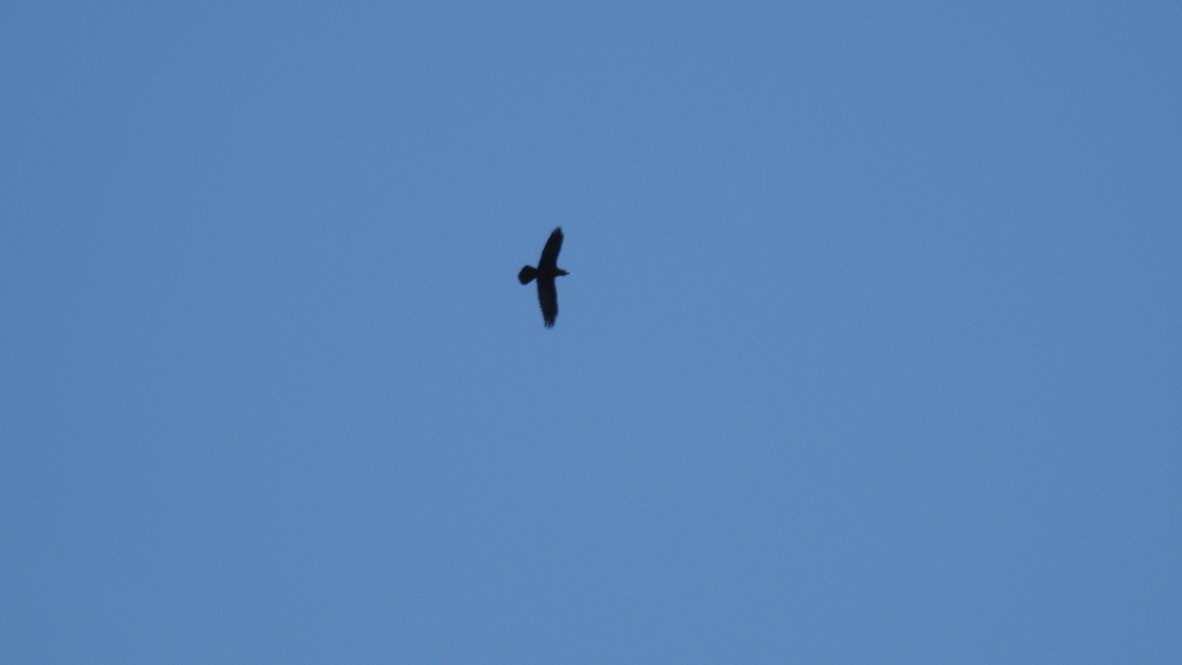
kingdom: Animalia
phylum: Chordata
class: Aves
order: Passeriformes
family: Corvidae
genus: Corvus
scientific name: Corvus corax
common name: Common raven
